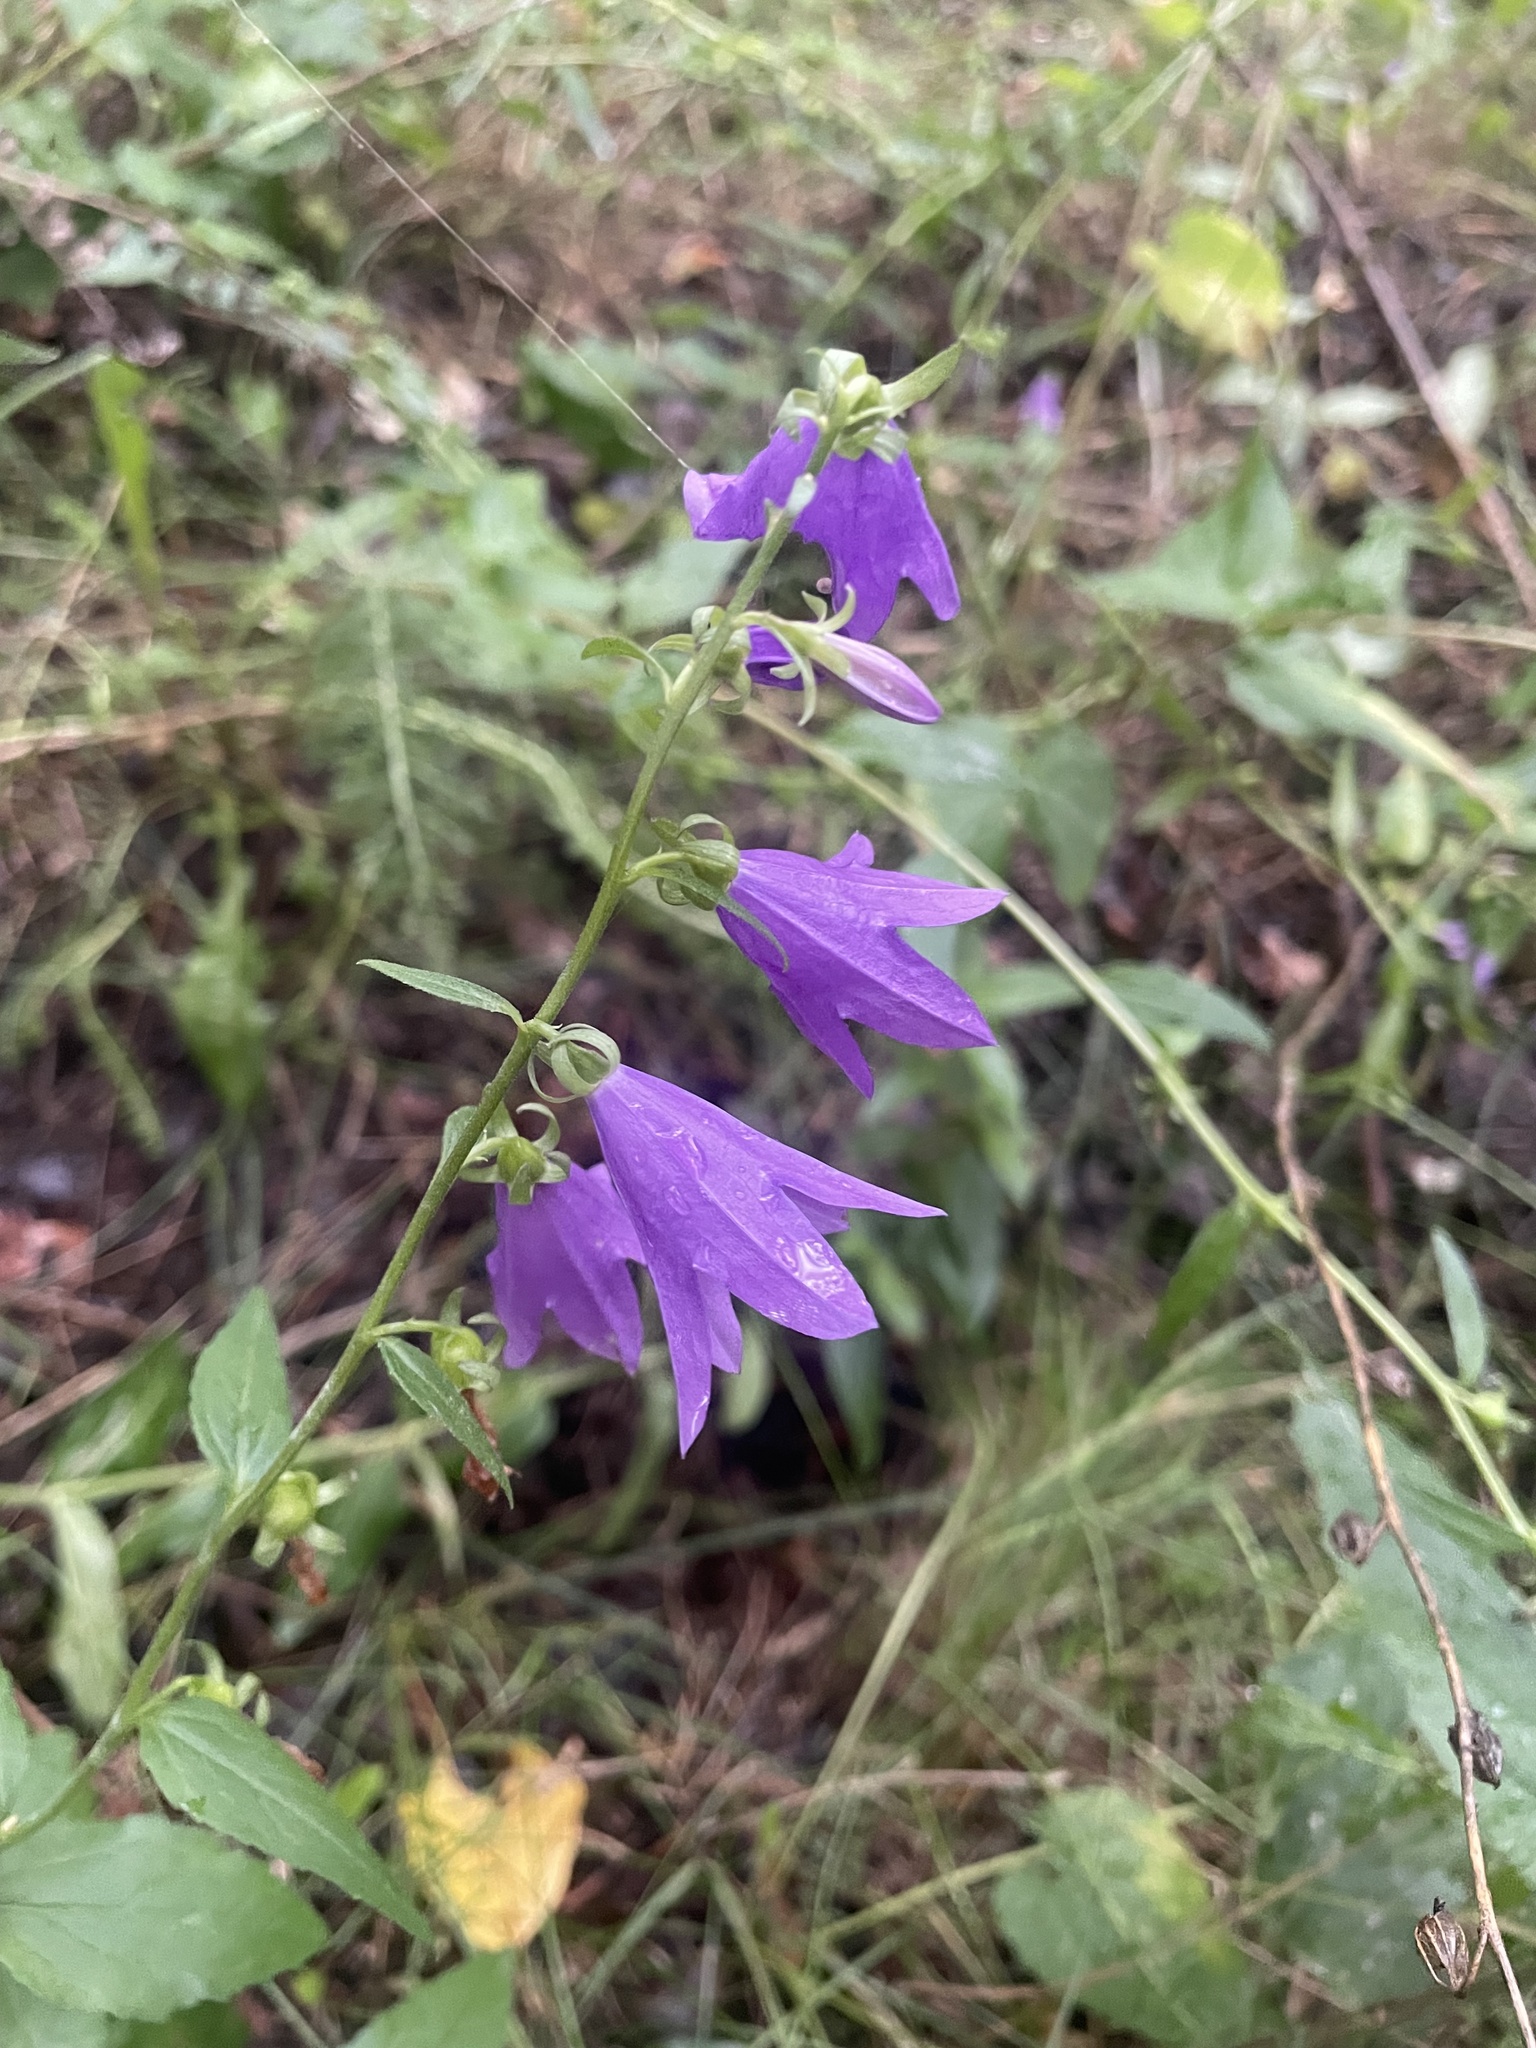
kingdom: Plantae
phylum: Tracheophyta
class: Magnoliopsida
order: Asterales
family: Campanulaceae
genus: Campanula
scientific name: Campanula rapunculoides
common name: Creeping bellflower
